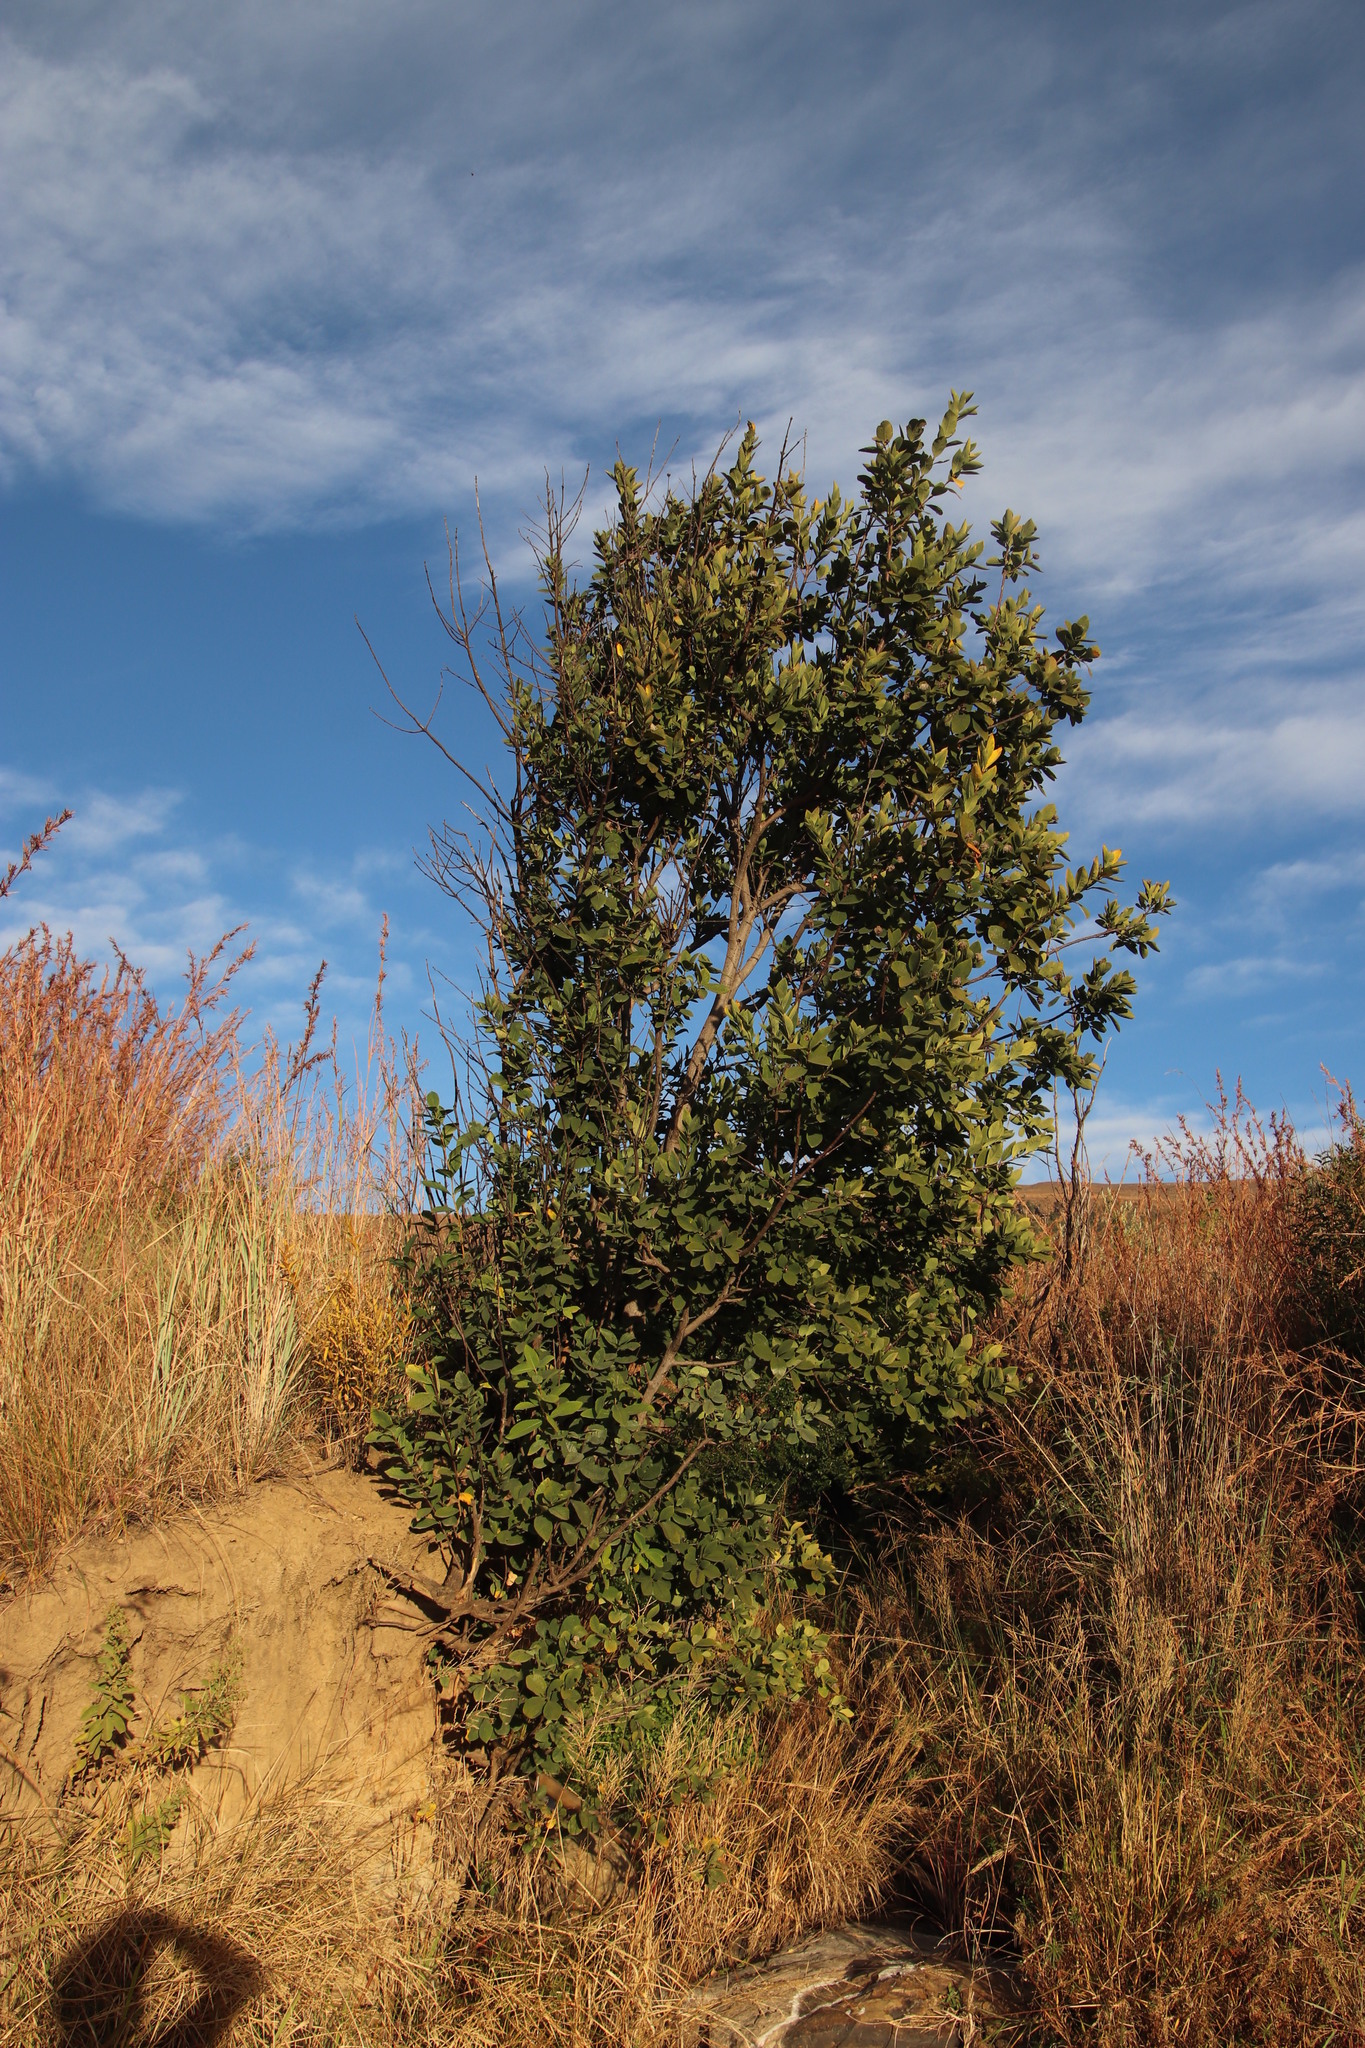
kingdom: Plantae
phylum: Tracheophyta
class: Magnoliopsida
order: Malvales
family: Thymelaeaceae
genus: Dais
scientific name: Dais cotinifolia
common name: Pompon tree
